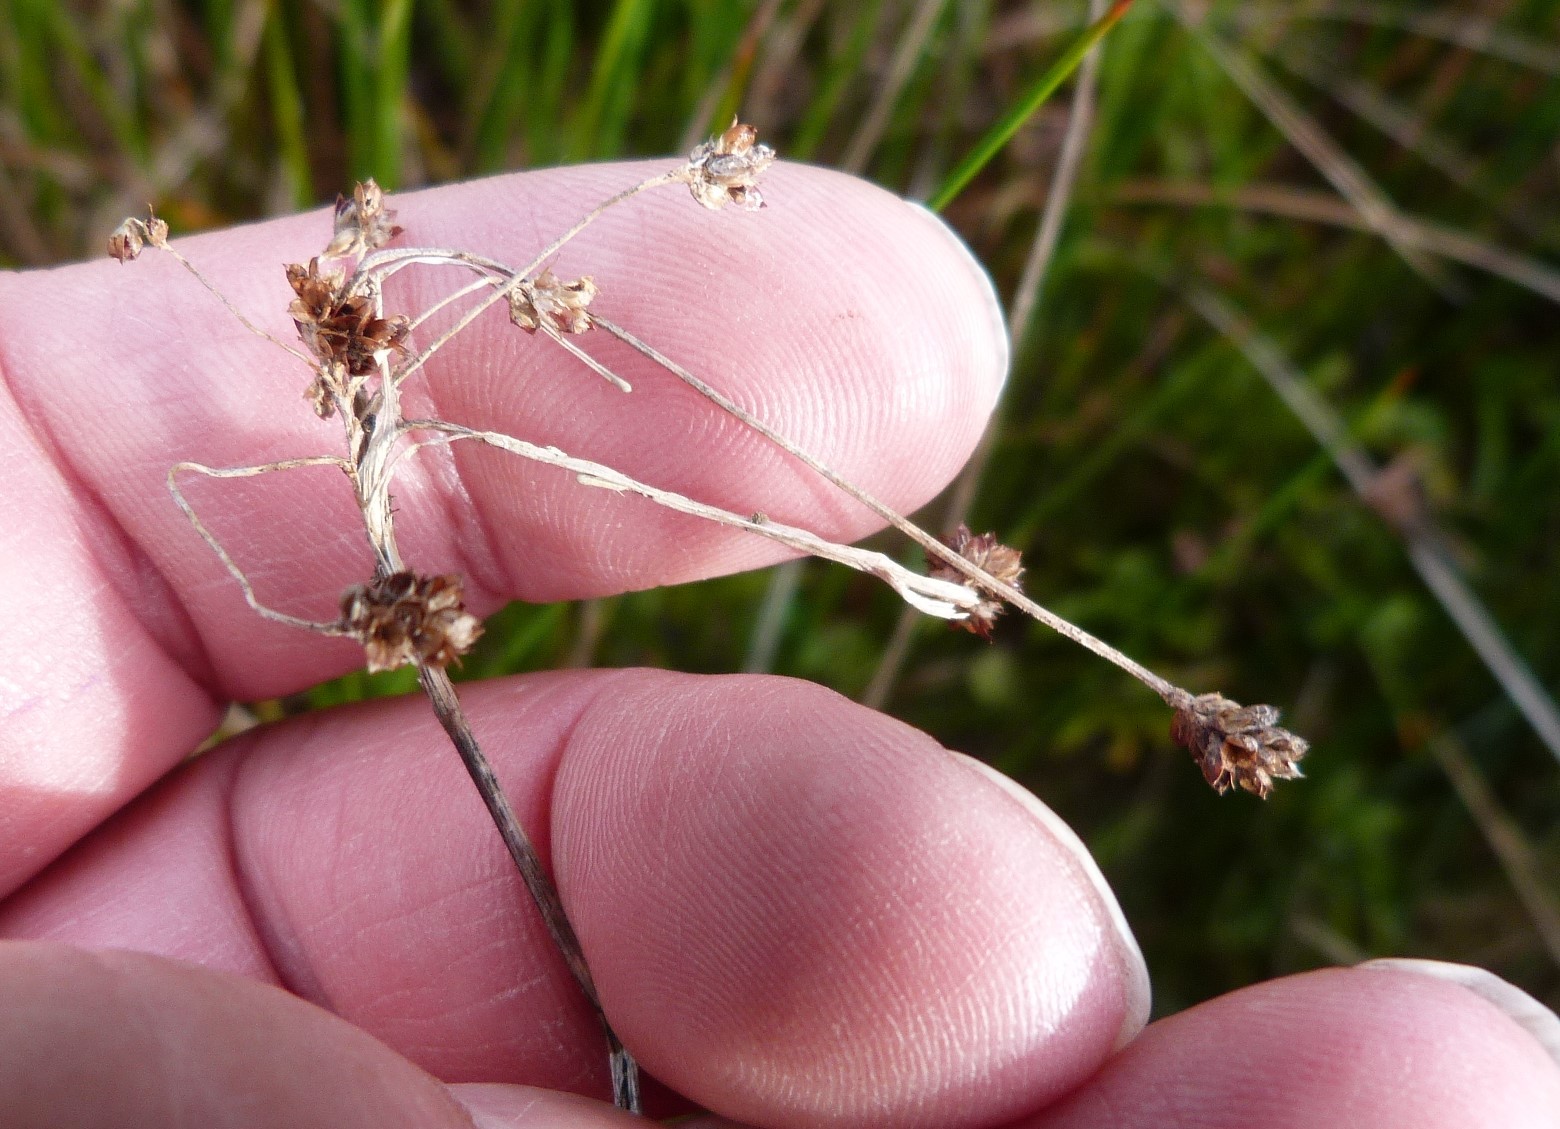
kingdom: Plantae
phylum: Tracheophyta
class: Liliopsida
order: Poales
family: Juncaceae
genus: Luzula
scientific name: Luzula picta
